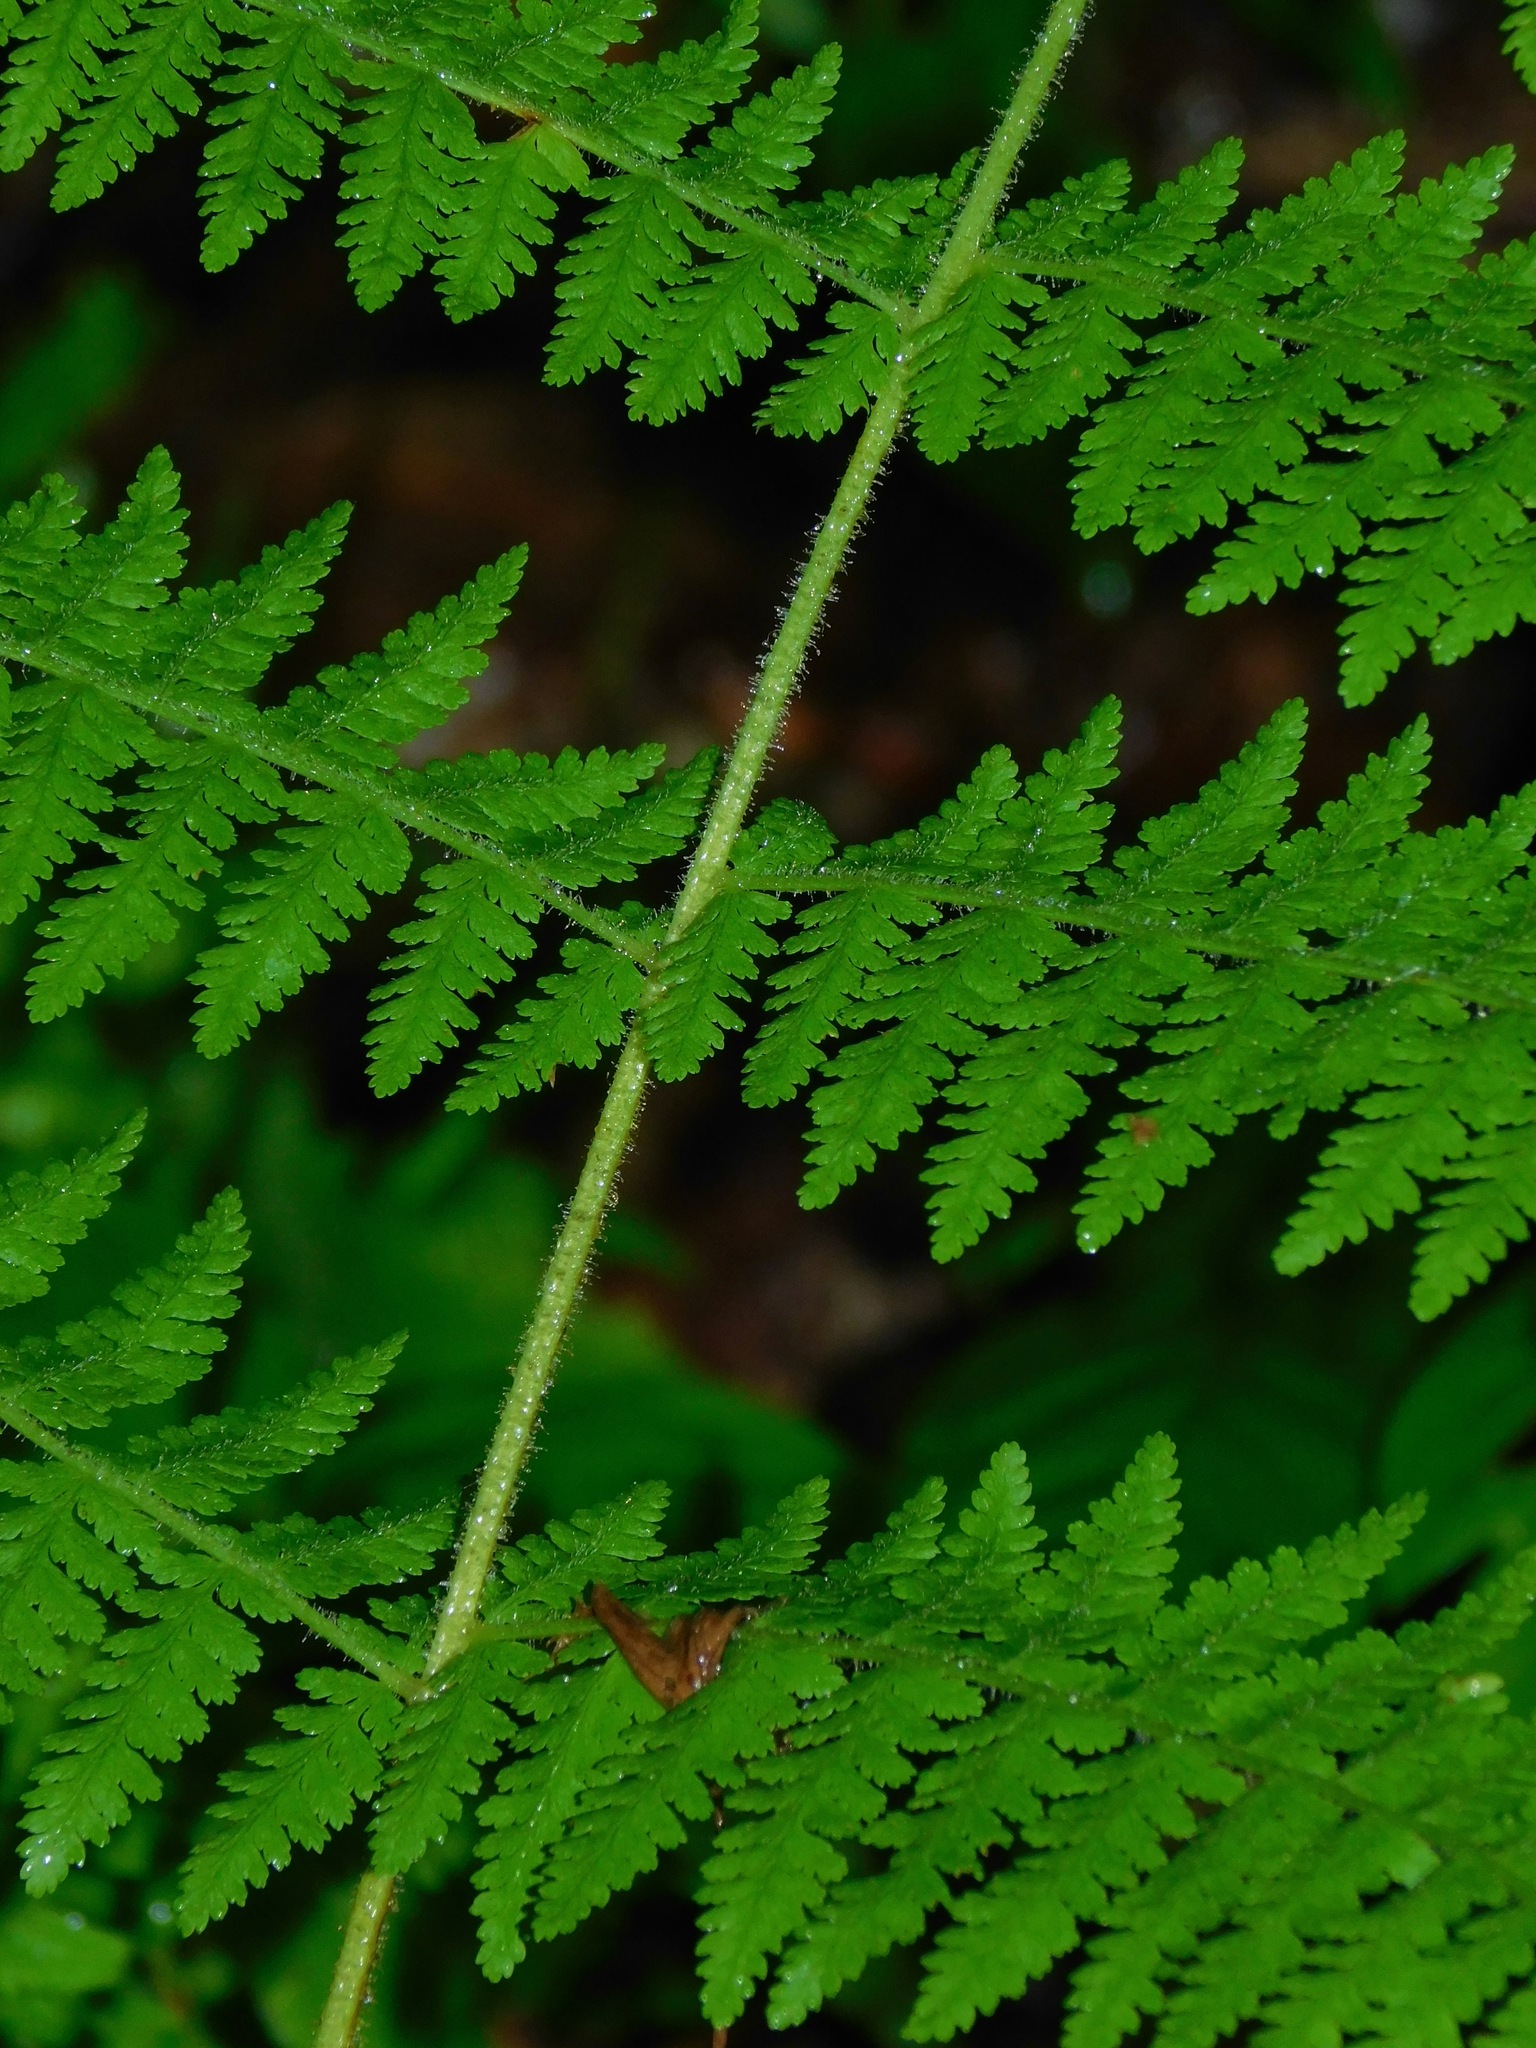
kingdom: Plantae
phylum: Tracheophyta
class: Polypodiopsida
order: Polypodiales
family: Dennstaedtiaceae
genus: Sitobolium
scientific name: Sitobolium punctilobum
